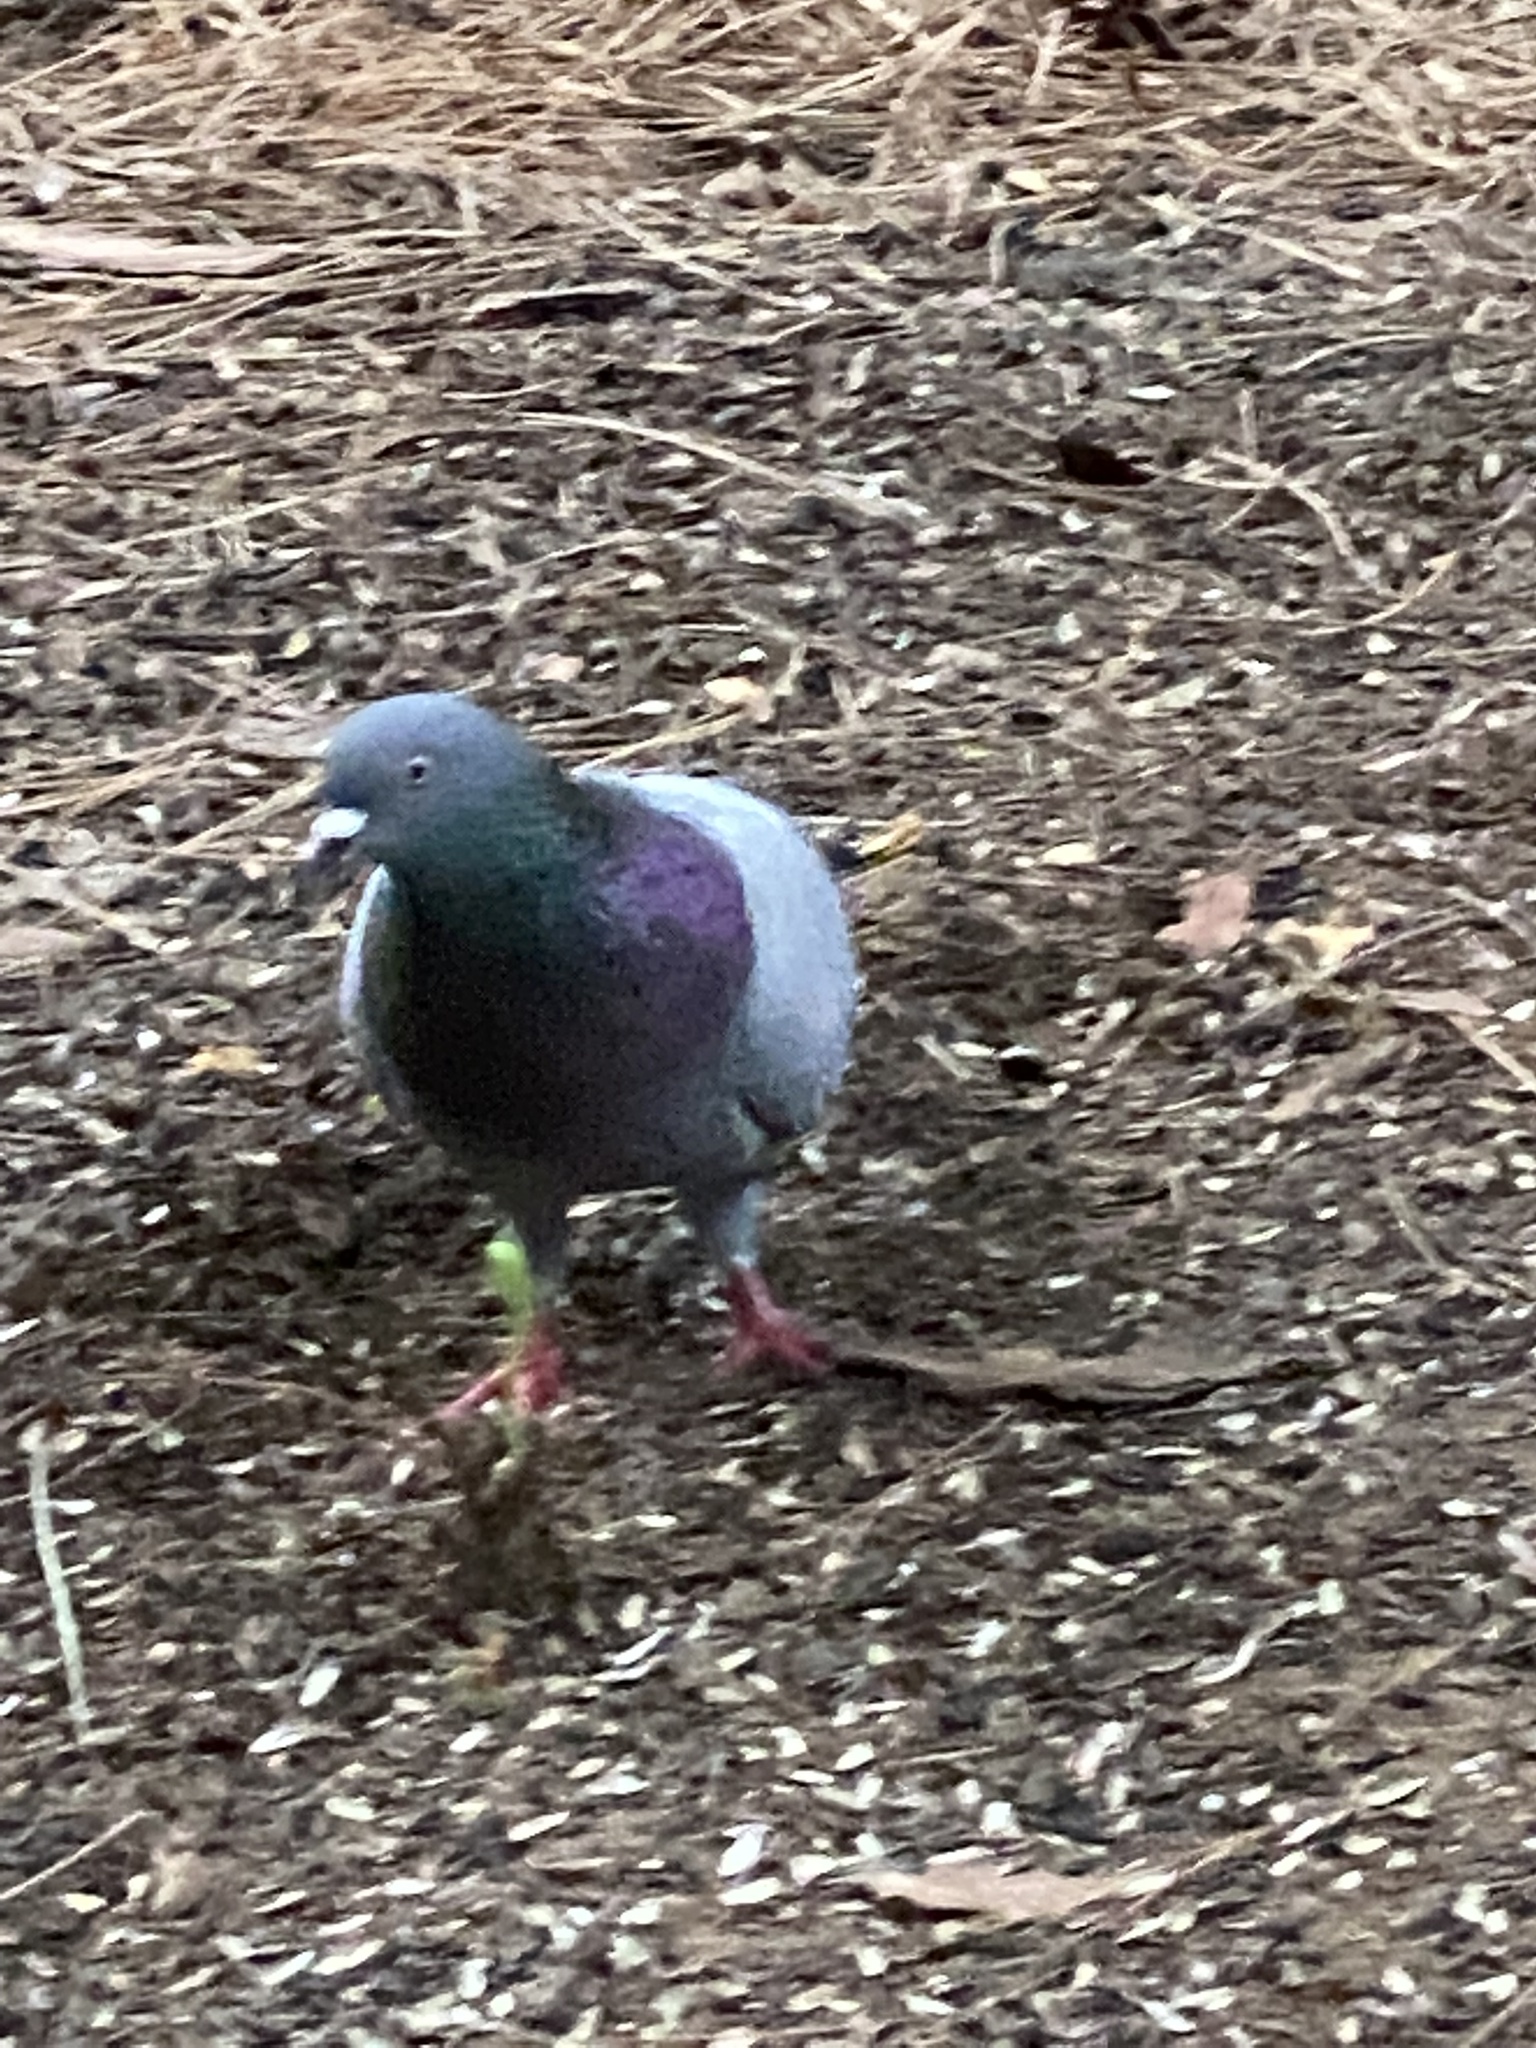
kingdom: Animalia
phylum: Chordata
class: Aves
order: Columbiformes
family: Columbidae
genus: Columba
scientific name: Columba livia
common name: Rock pigeon
